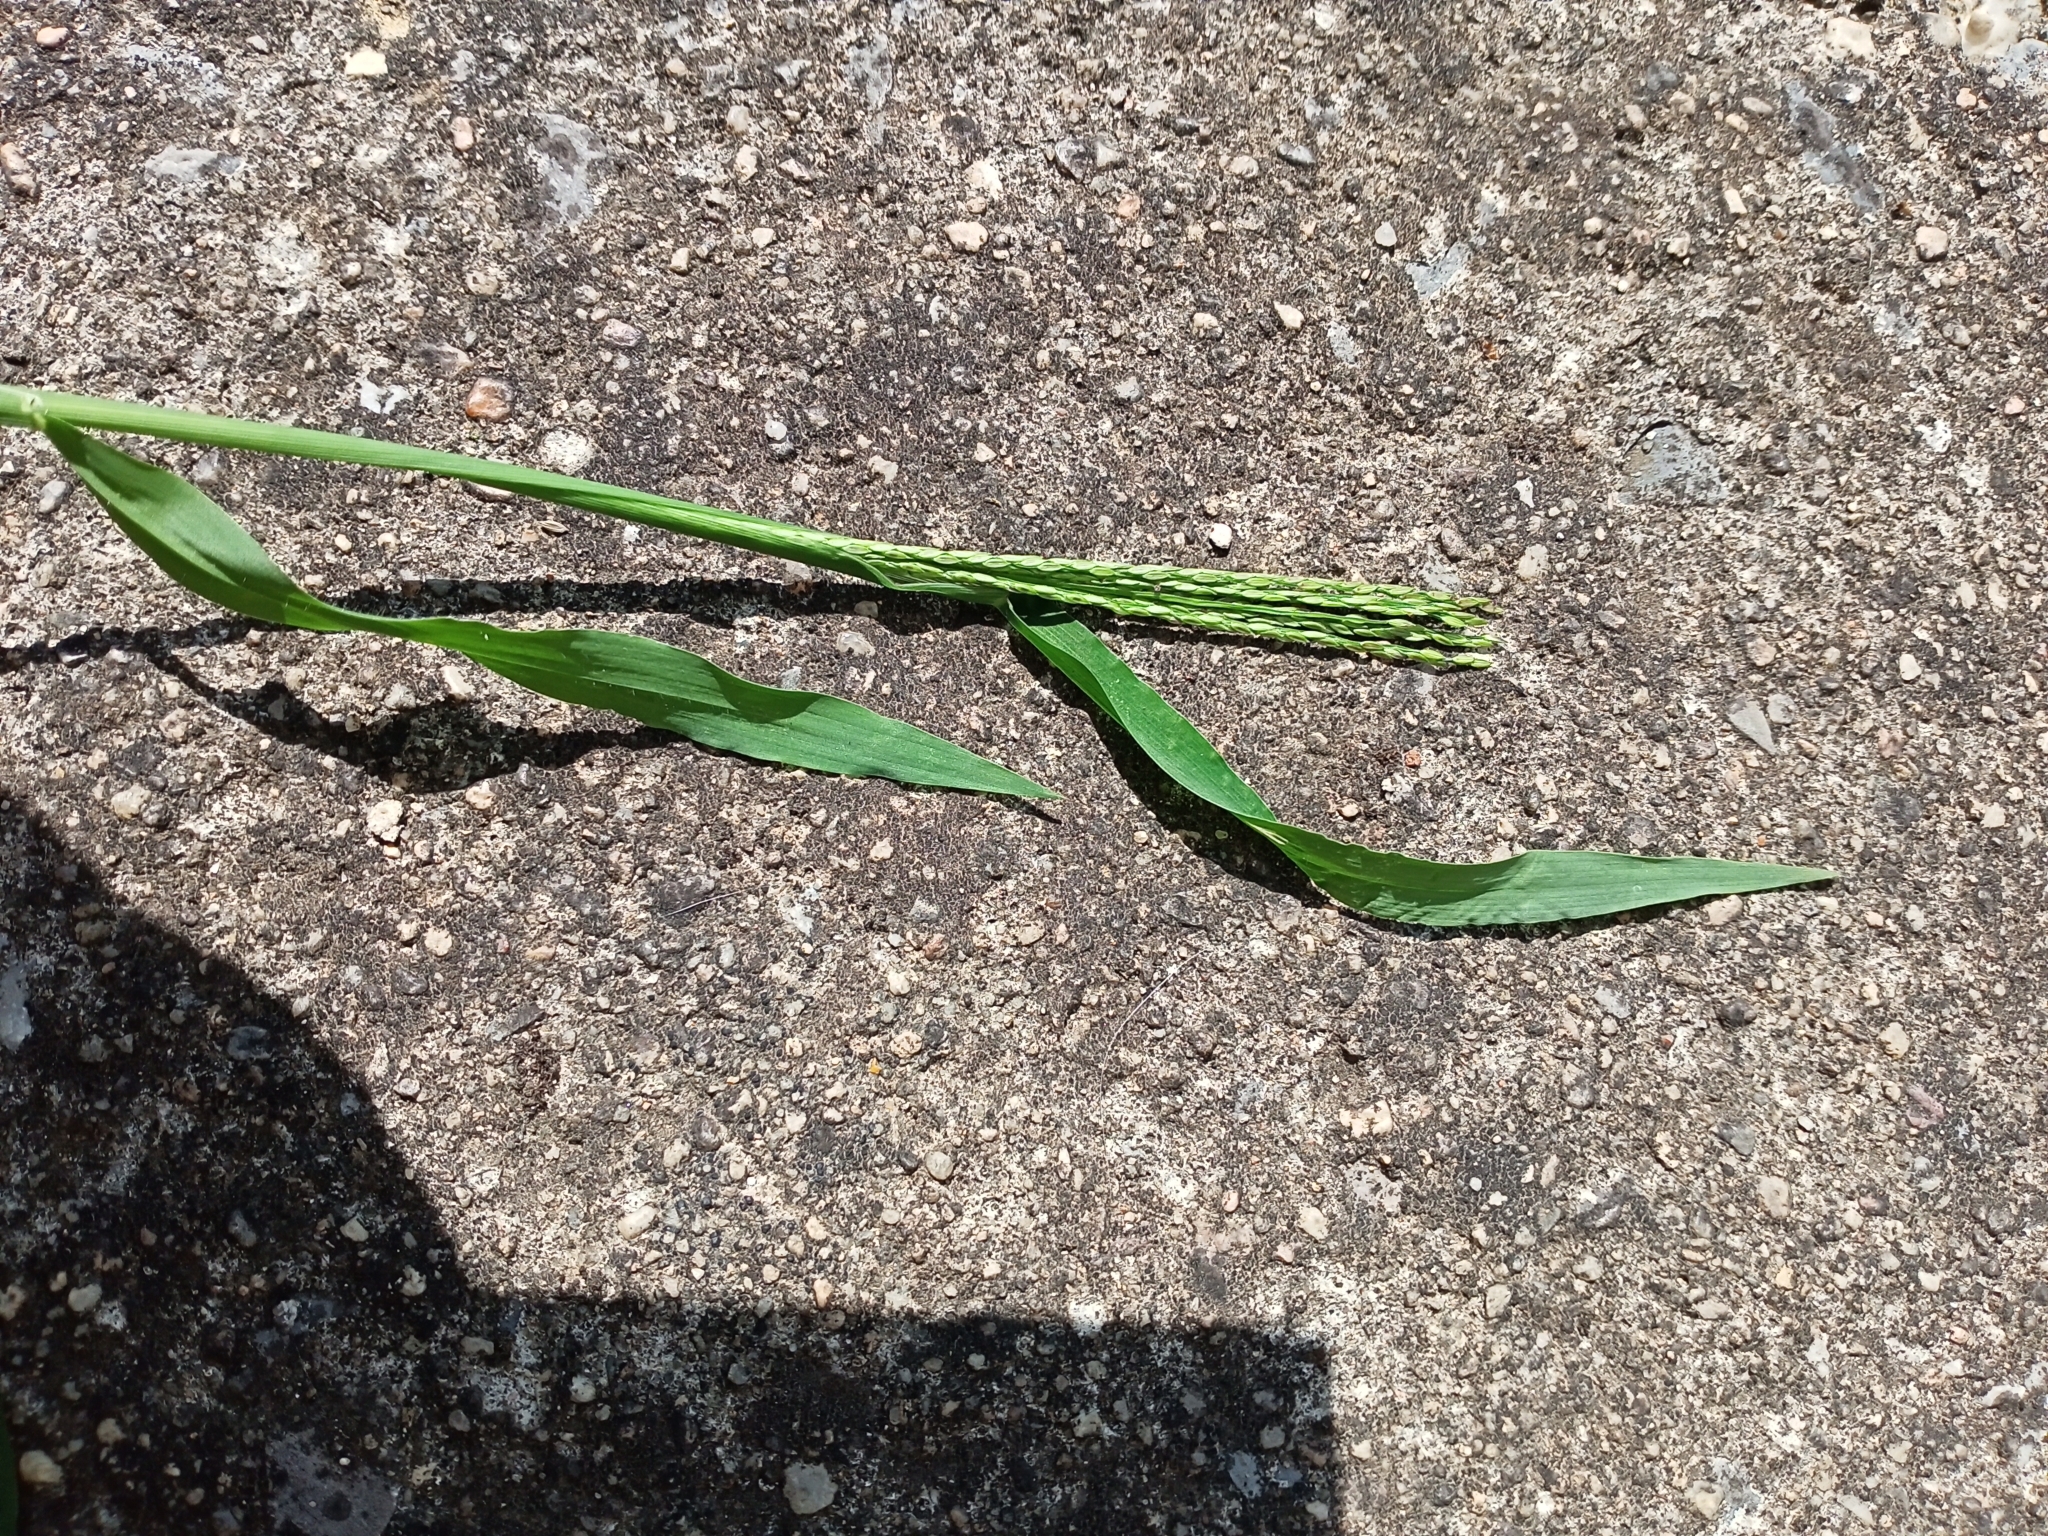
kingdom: Plantae
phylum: Tracheophyta
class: Liliopsida
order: Poales
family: Poaceae
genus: Digitaria
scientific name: Digitaria sanguinalis
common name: Hairy crabgrass
